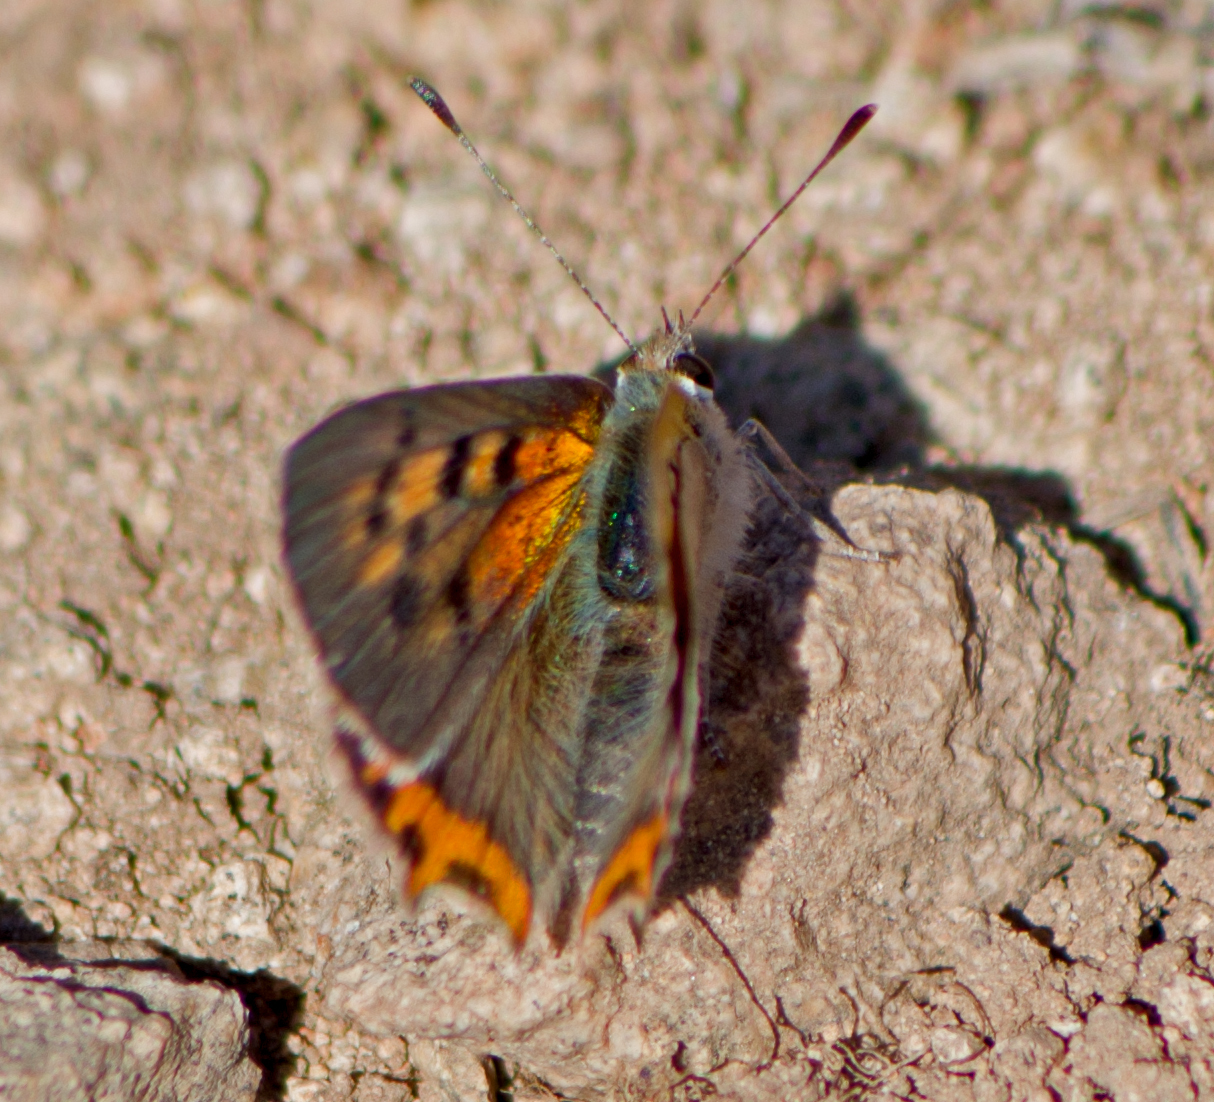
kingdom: Animalia
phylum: Arthropoda
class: Insecta
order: Lepidoptera
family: Lycaenidae
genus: Lycaena
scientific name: Lycaena phlaeas
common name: Small copper
